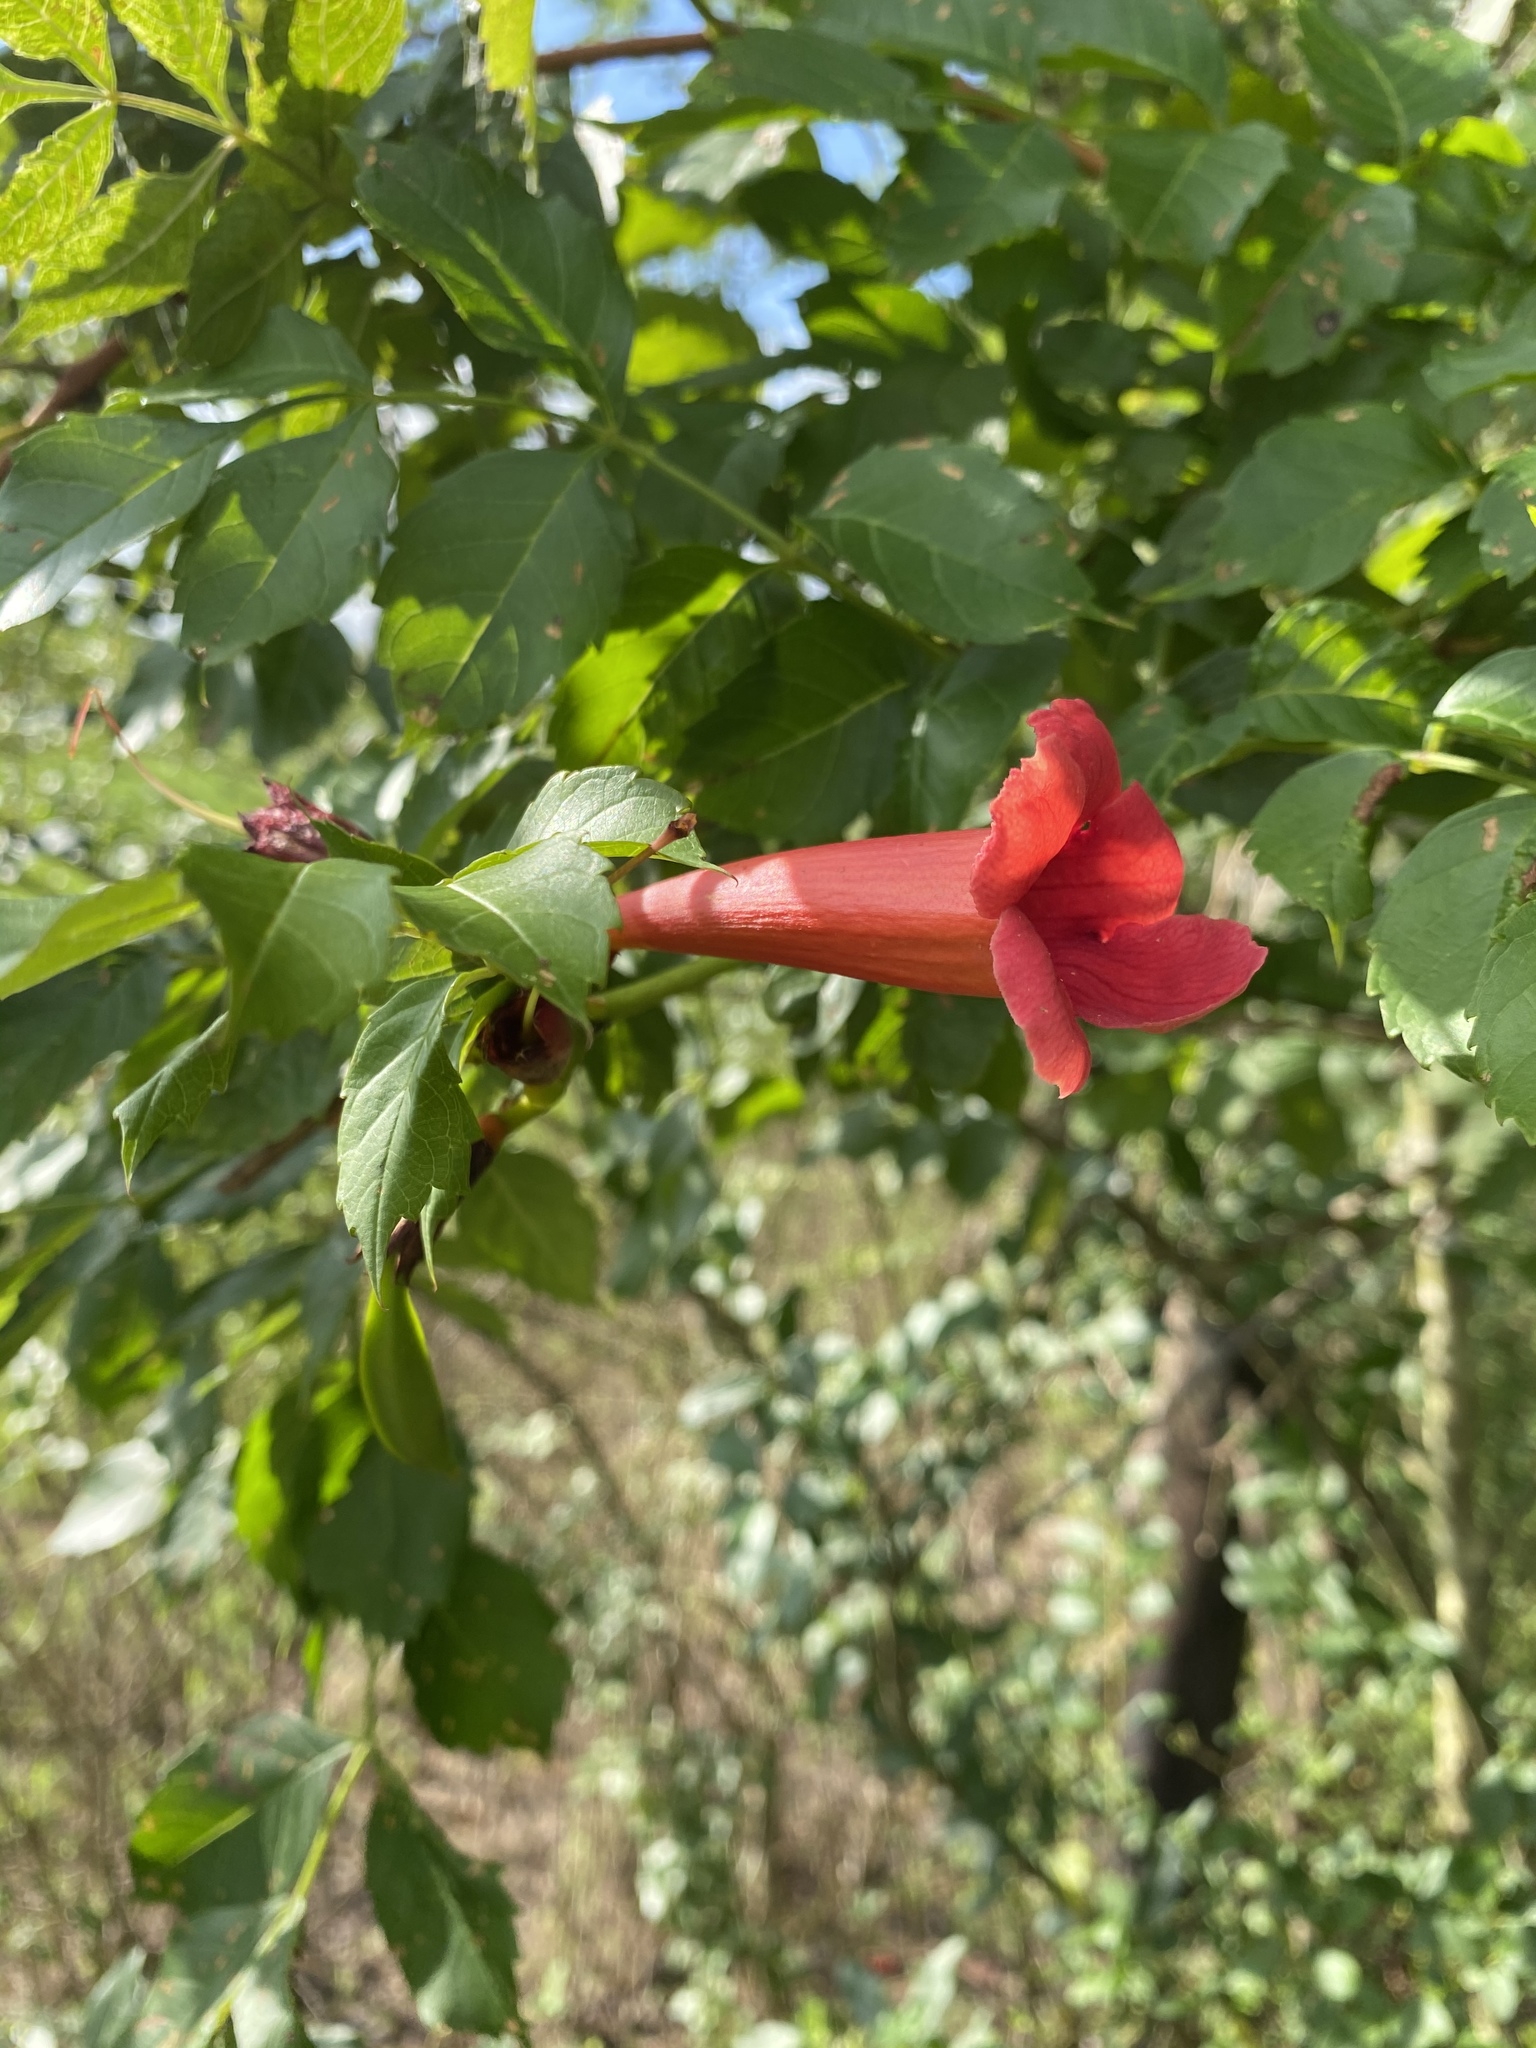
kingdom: Plantae
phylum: Tracheophyta
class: Magnoliopsida
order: Lamiales
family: Bignoniaceae
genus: Campsis
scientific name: Campsis radicans
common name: Trumpet-creeper
